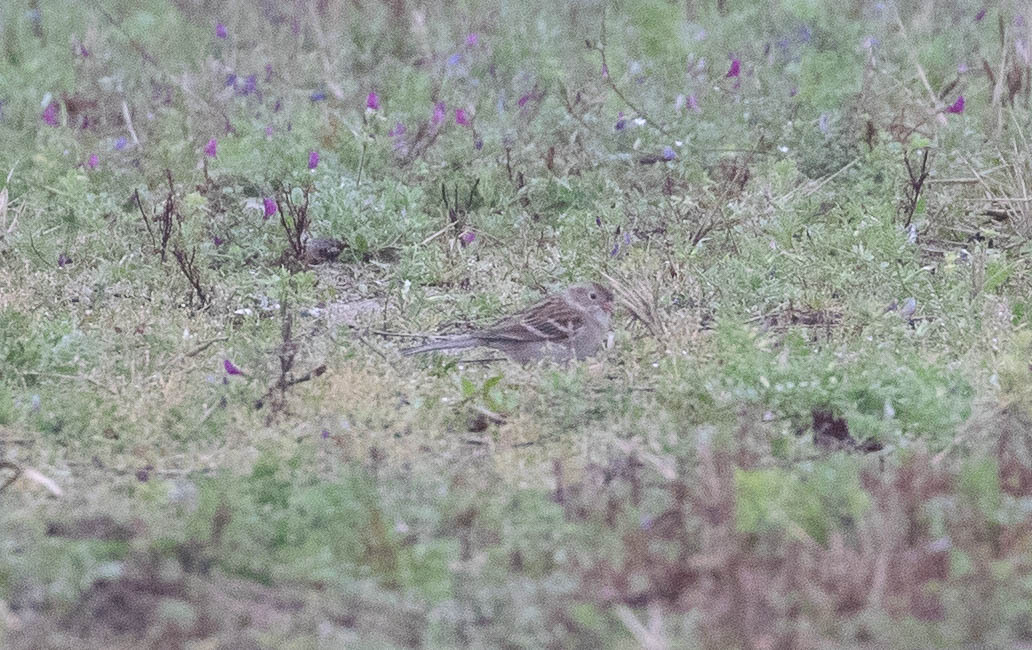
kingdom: Animalia
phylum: Chordata
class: Aves
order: Passeriformes
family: Passerellidae
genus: Spizella
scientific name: Spizella pusilla
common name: Field sparrow
